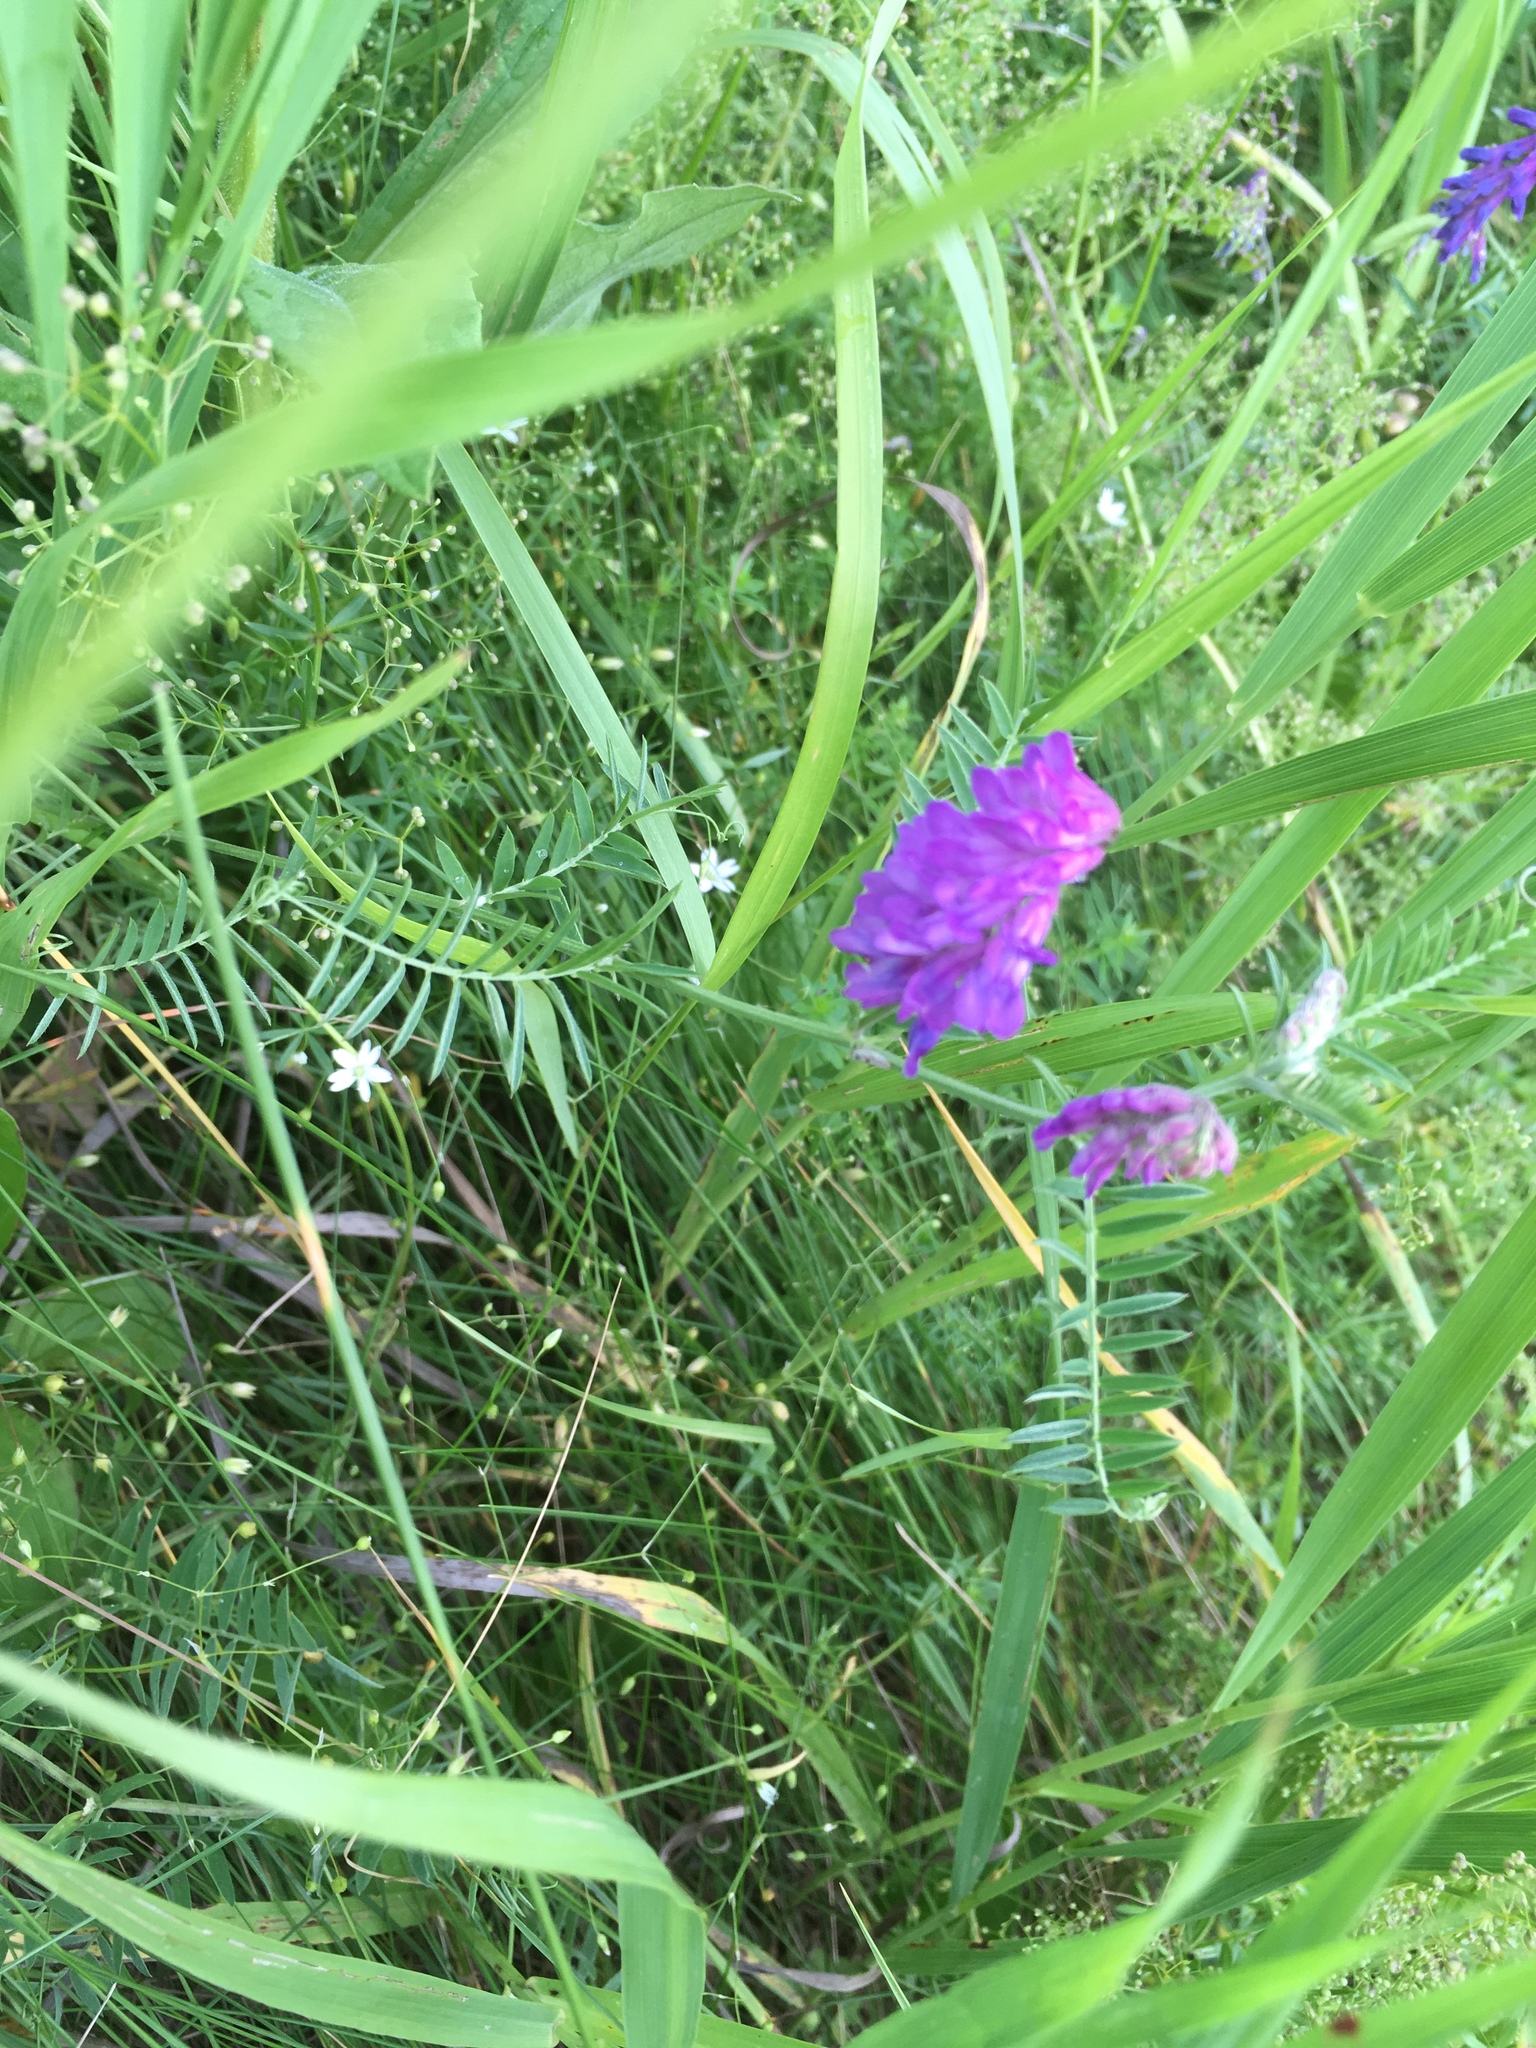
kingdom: Plantae
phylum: Tracheophyta
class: Magnoliopsida
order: Fabales
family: Fabaceae
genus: Vicia
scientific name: Vicia cracca
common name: Bird vetch
